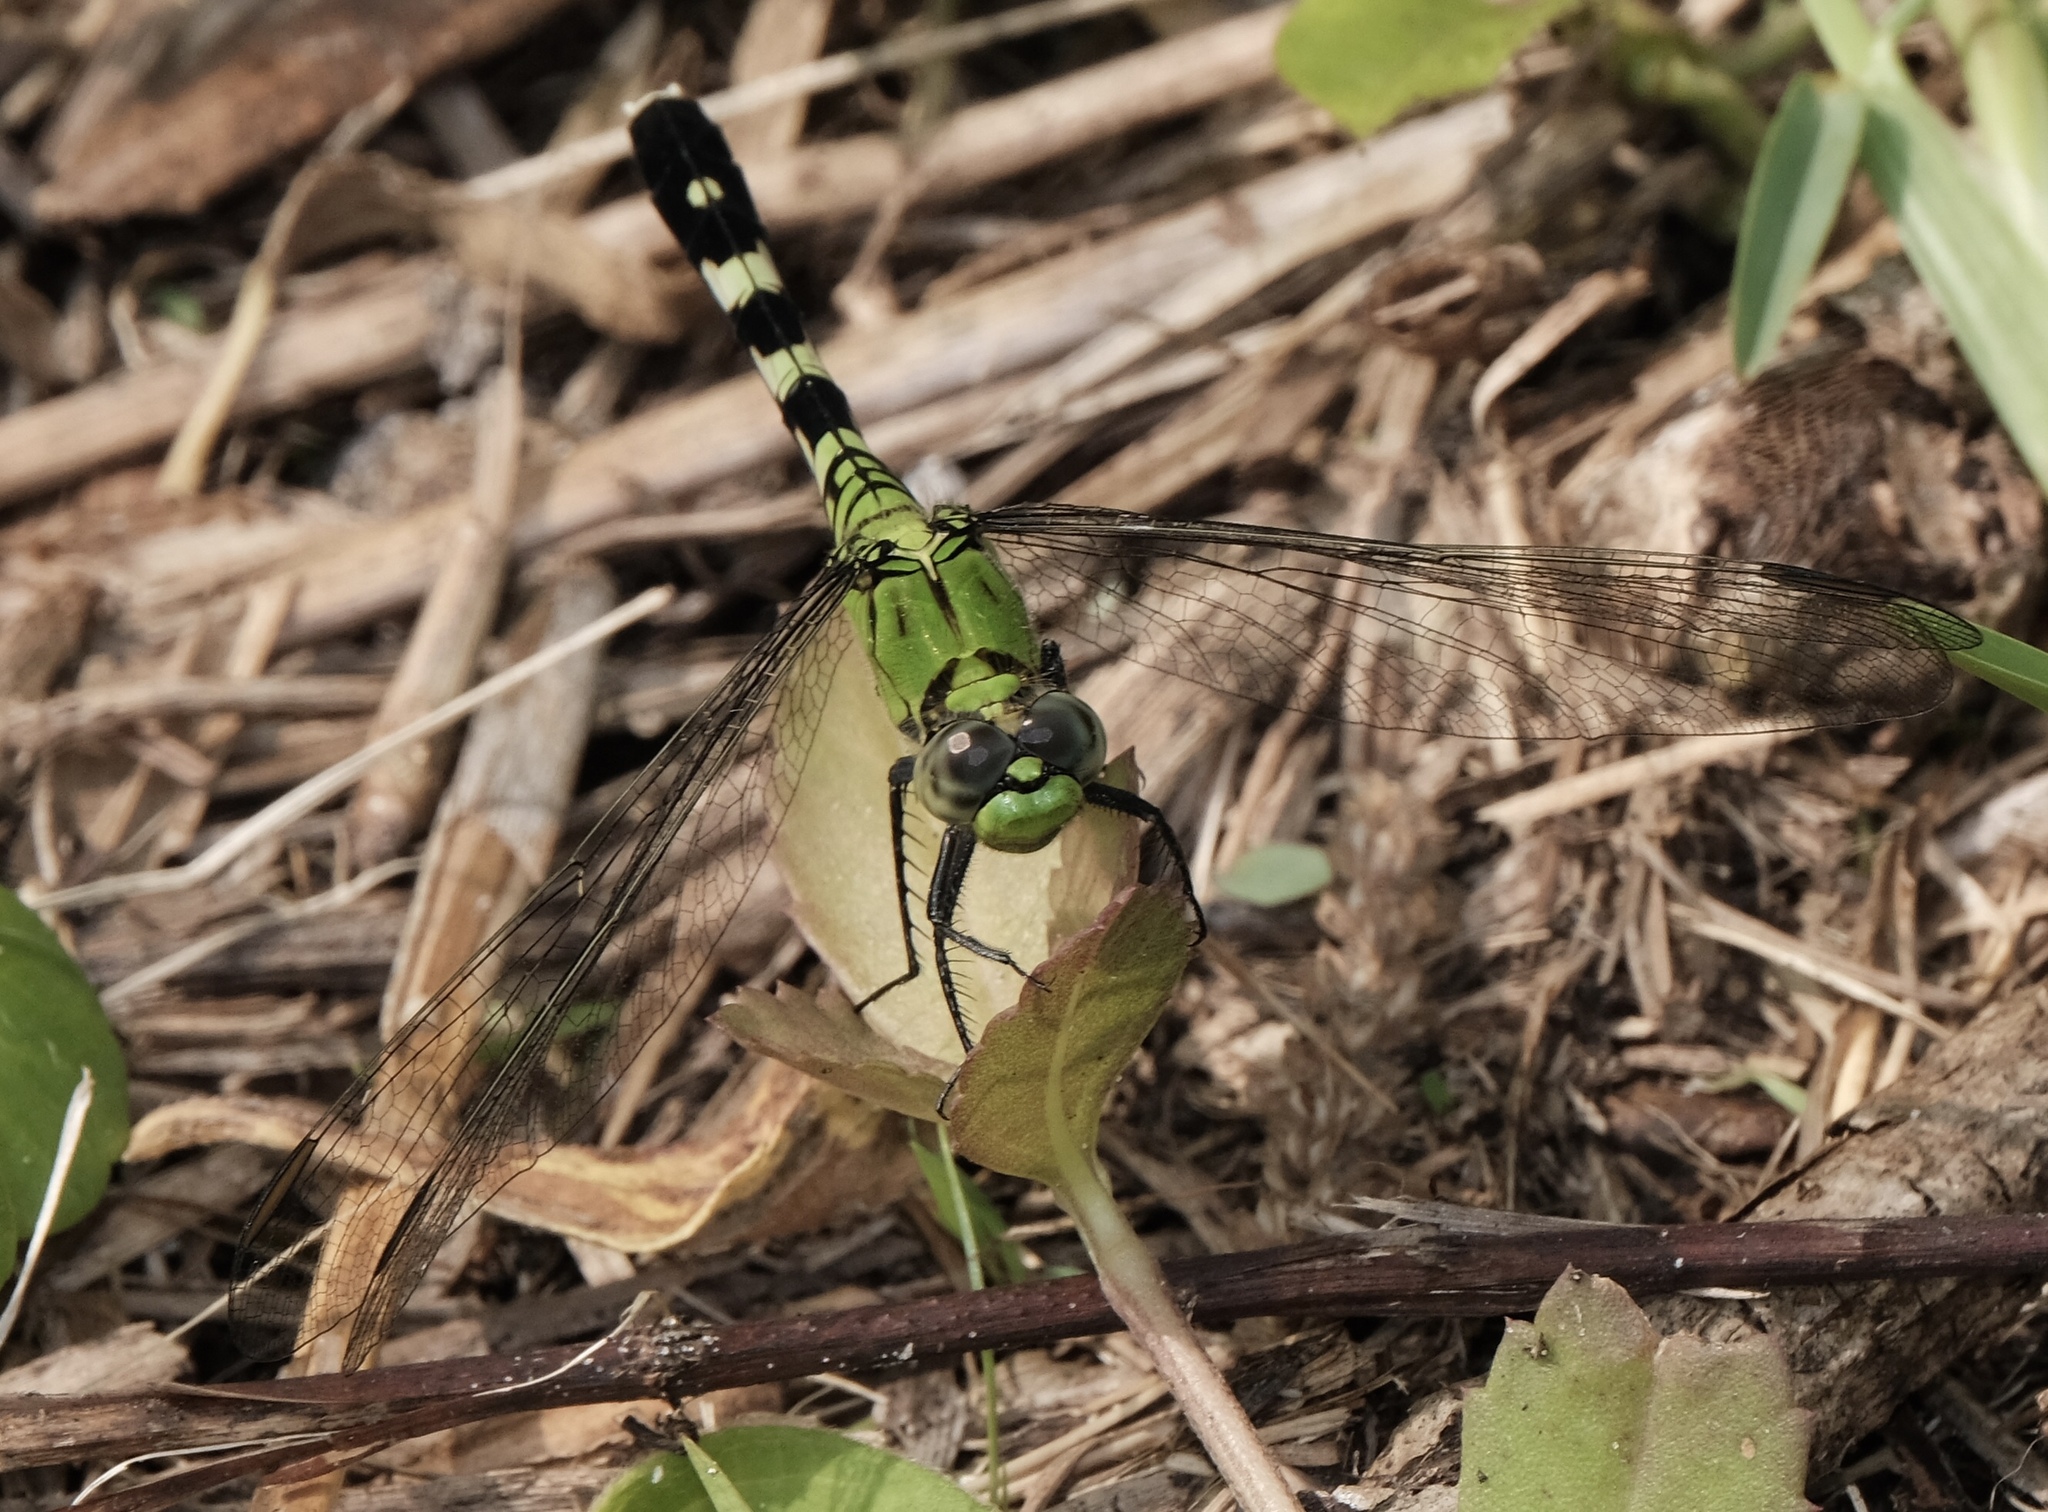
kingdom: Animalia
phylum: Arthropoda
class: Insecta
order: Odonata
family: Libellulidae
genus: Erythemis
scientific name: Erythemis simplicicollis
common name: Eastern pondhawk
